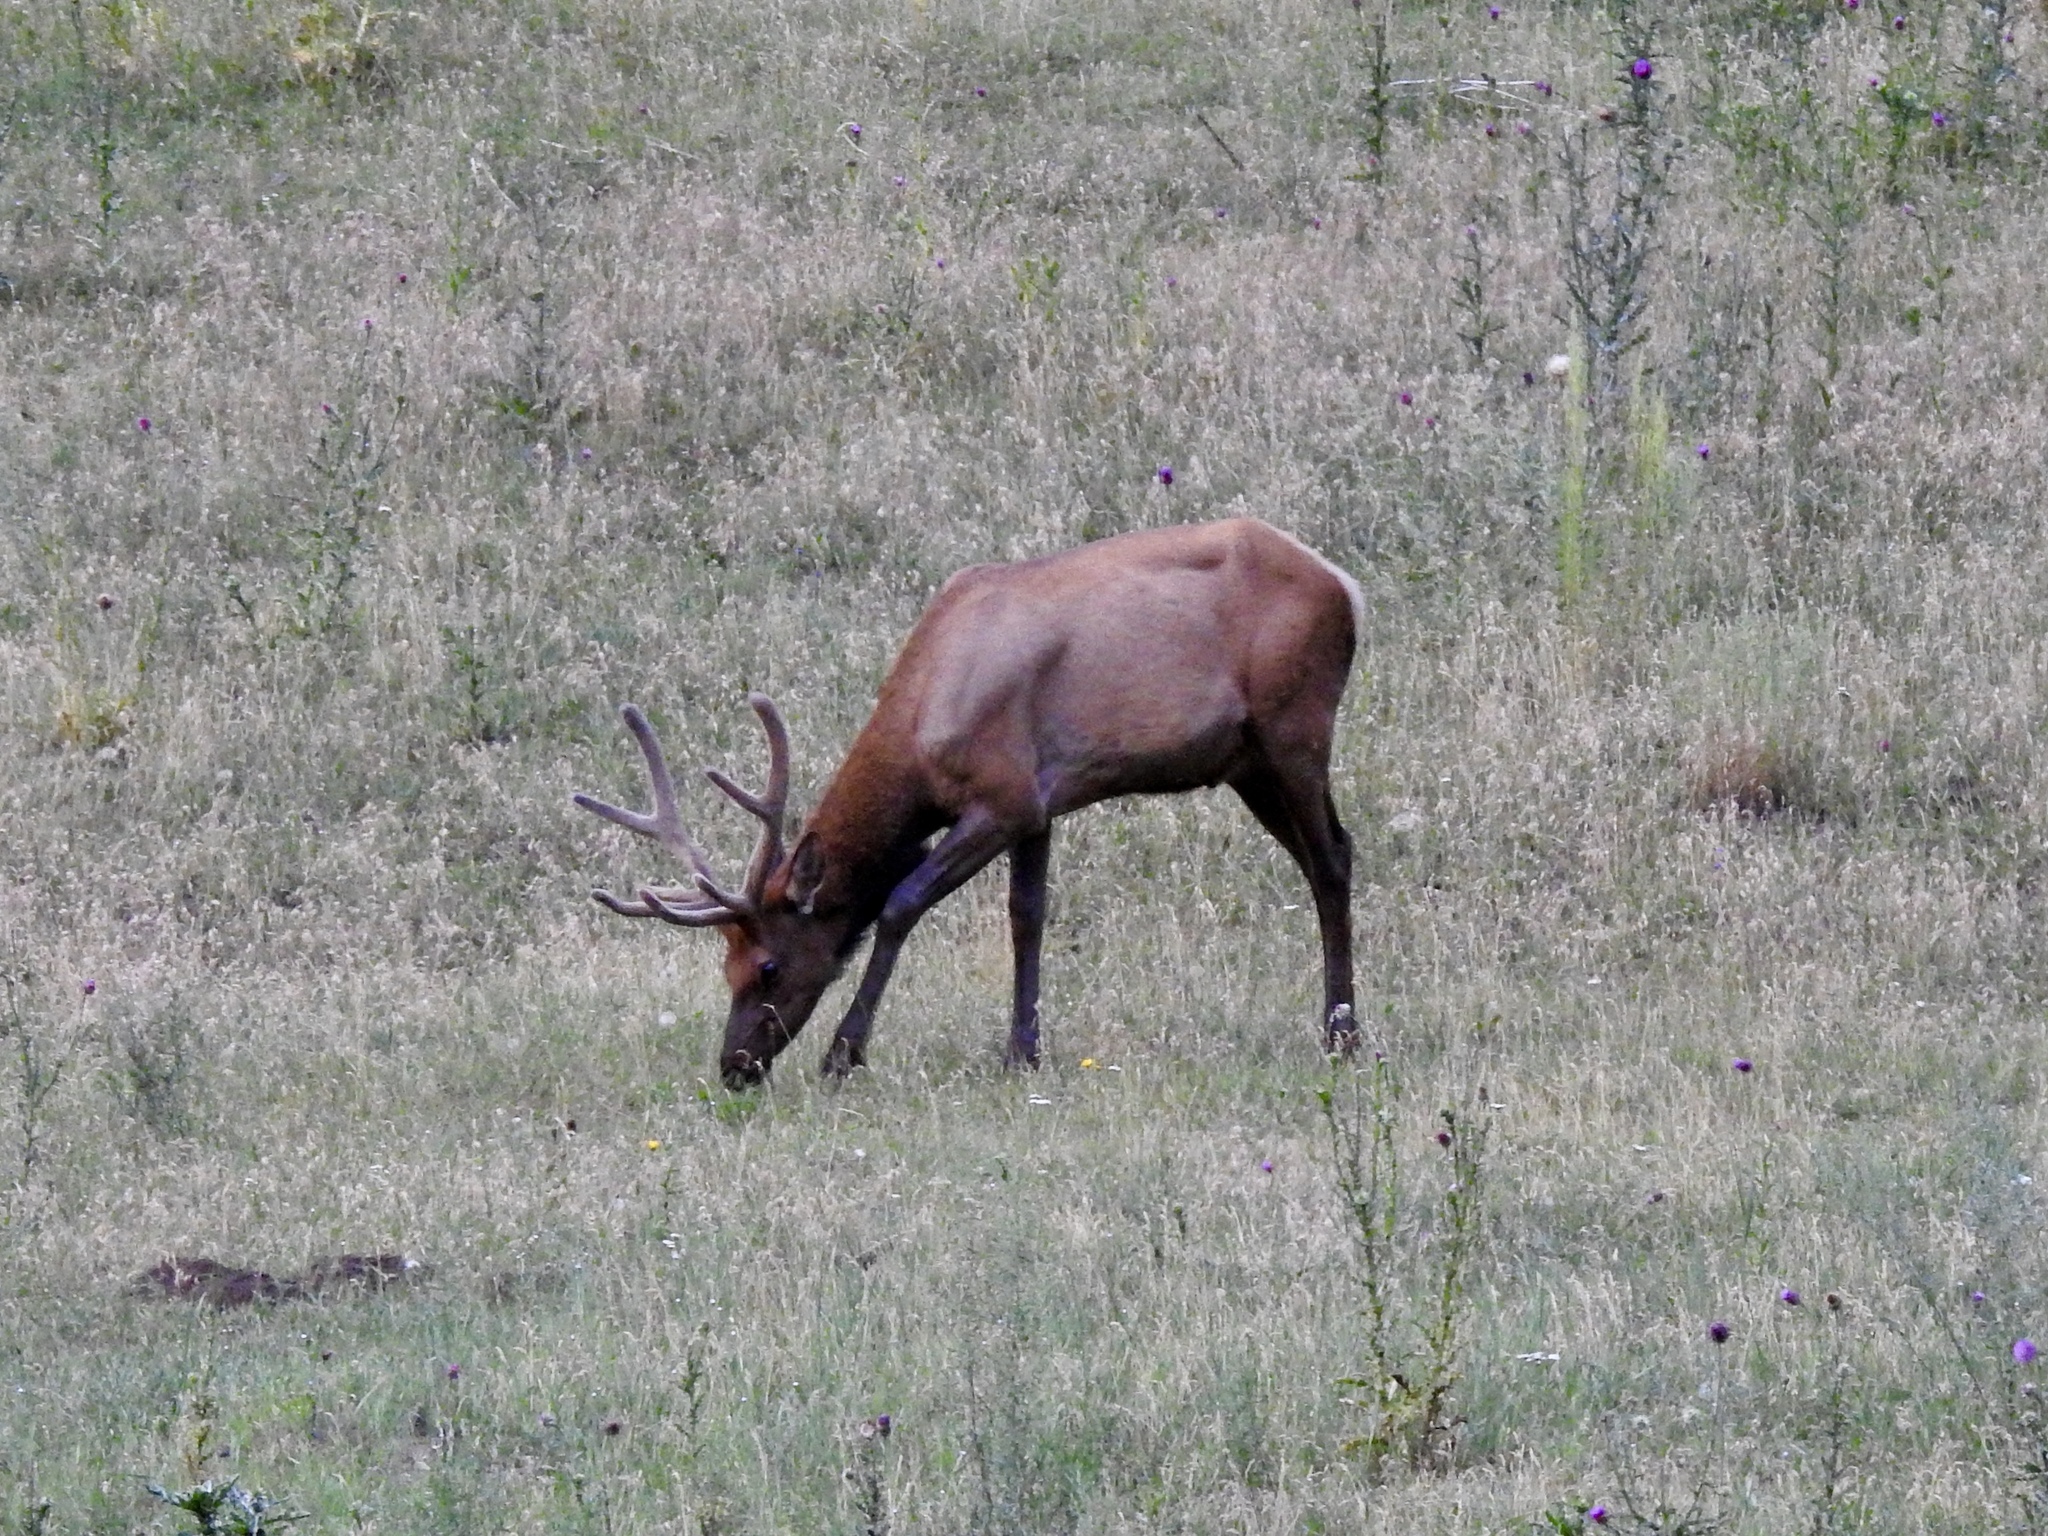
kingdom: Animalia
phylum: Chordata
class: Mammalia
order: Artiodactyla
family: Cervidae
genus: Cervus
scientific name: Cervus elaphus
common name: Red deer
